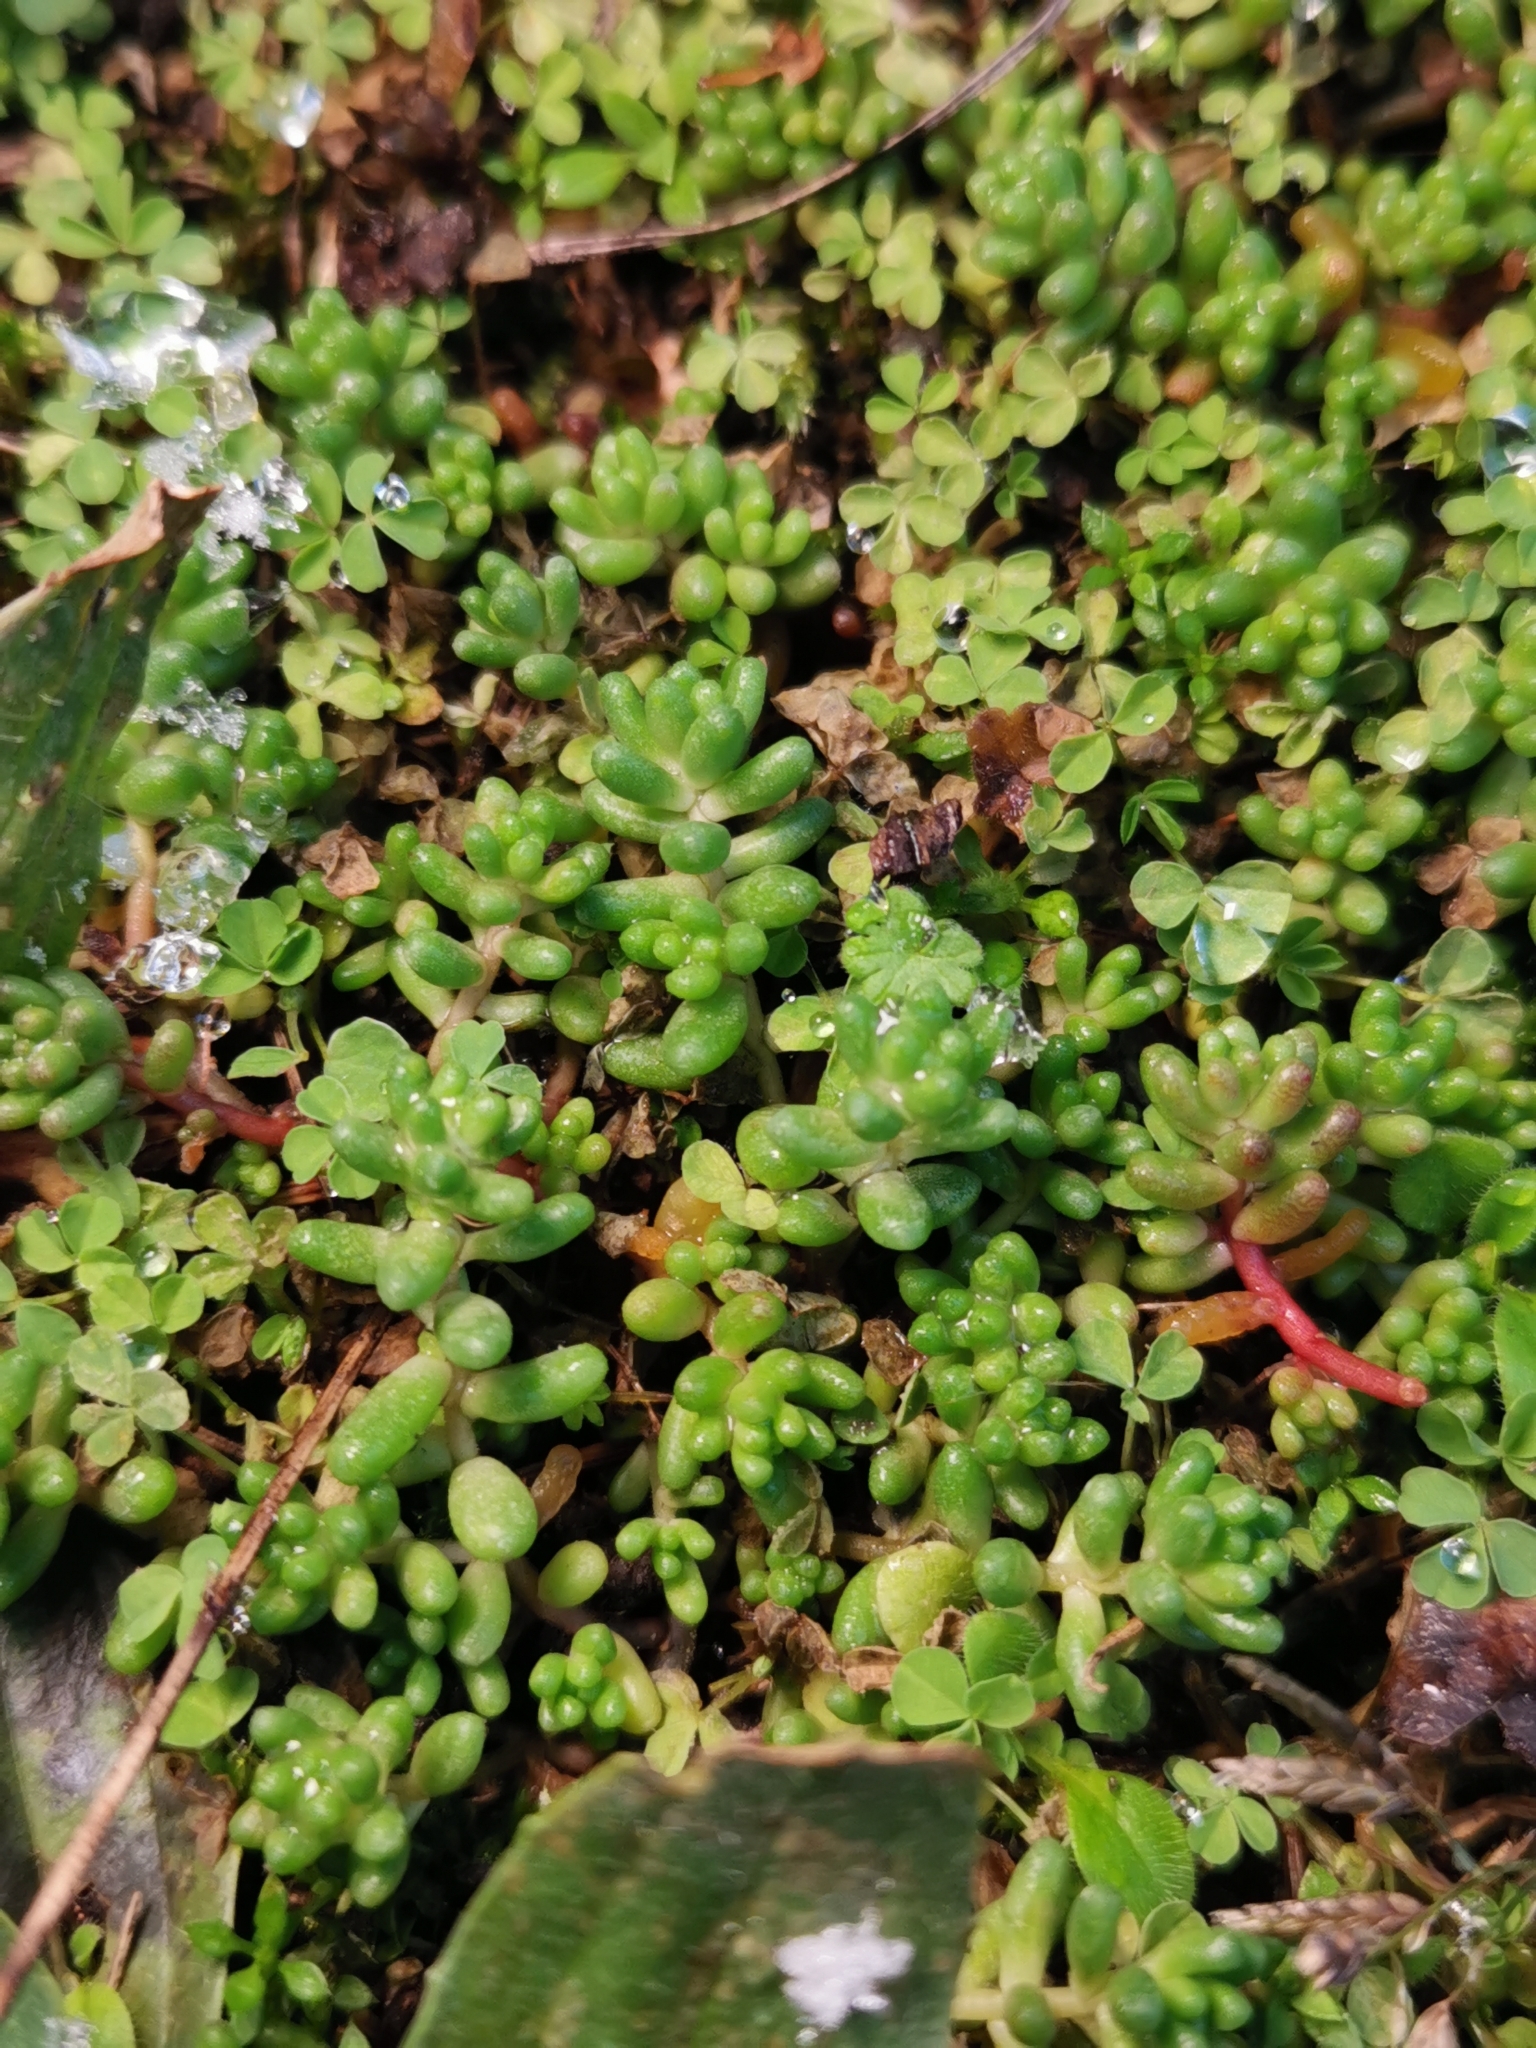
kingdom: Plantae
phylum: Tracheophyta
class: Magnoliopsida
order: Saxifragales
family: Crassulaceae
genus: Sedum
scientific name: Sedum album
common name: White stonecrop
